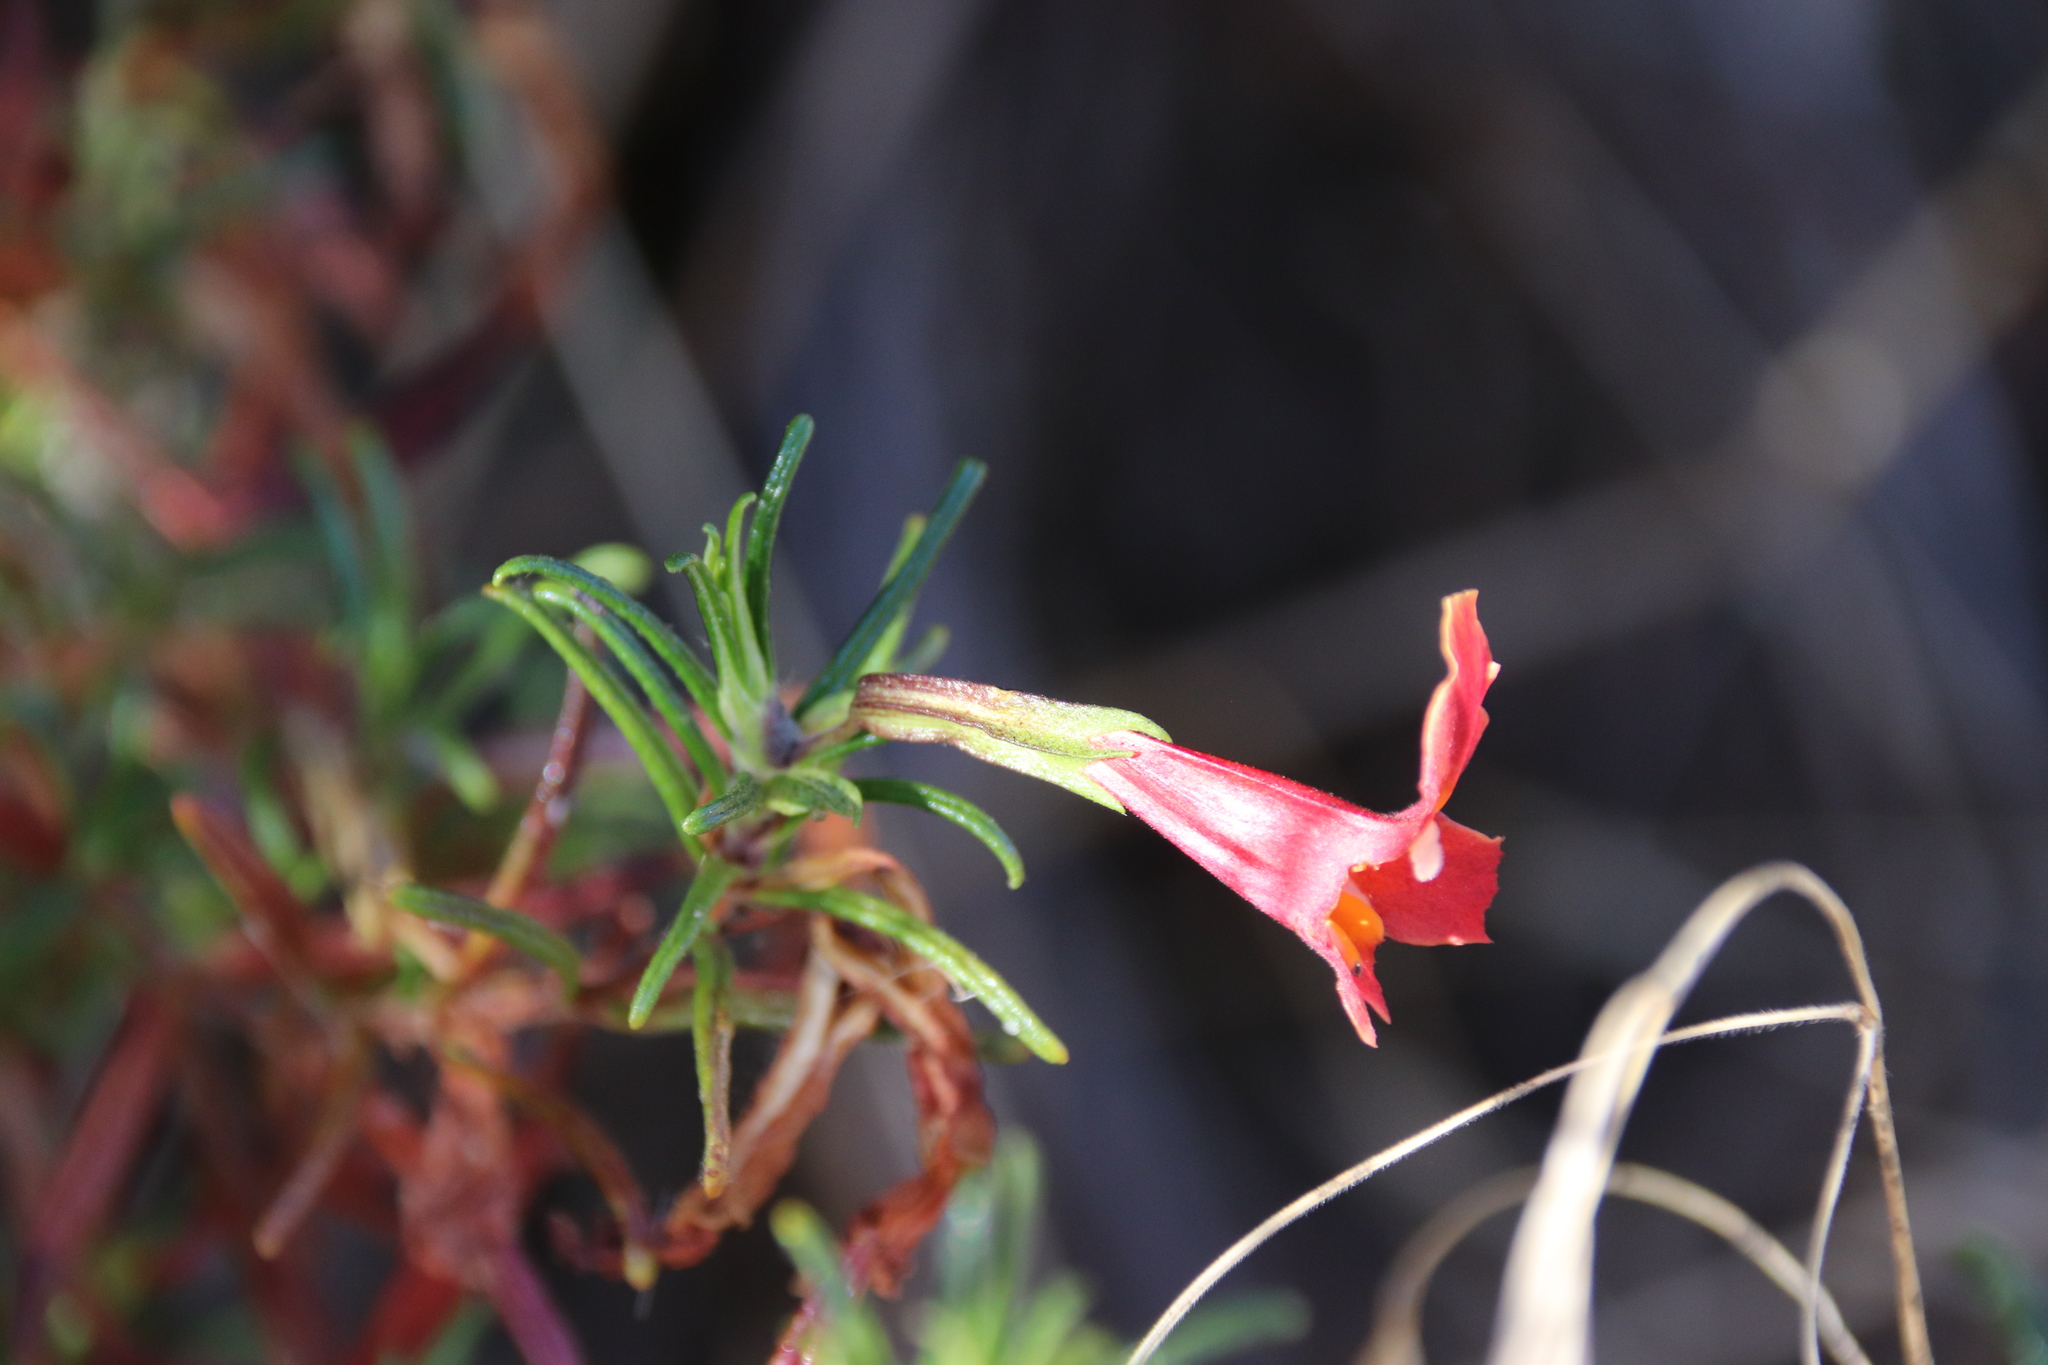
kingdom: Plantae
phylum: Tracheophyta
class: Magnoliopsida
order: Lamiales
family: Phrymaceae
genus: Diplacus
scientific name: Diplacus puniceus
